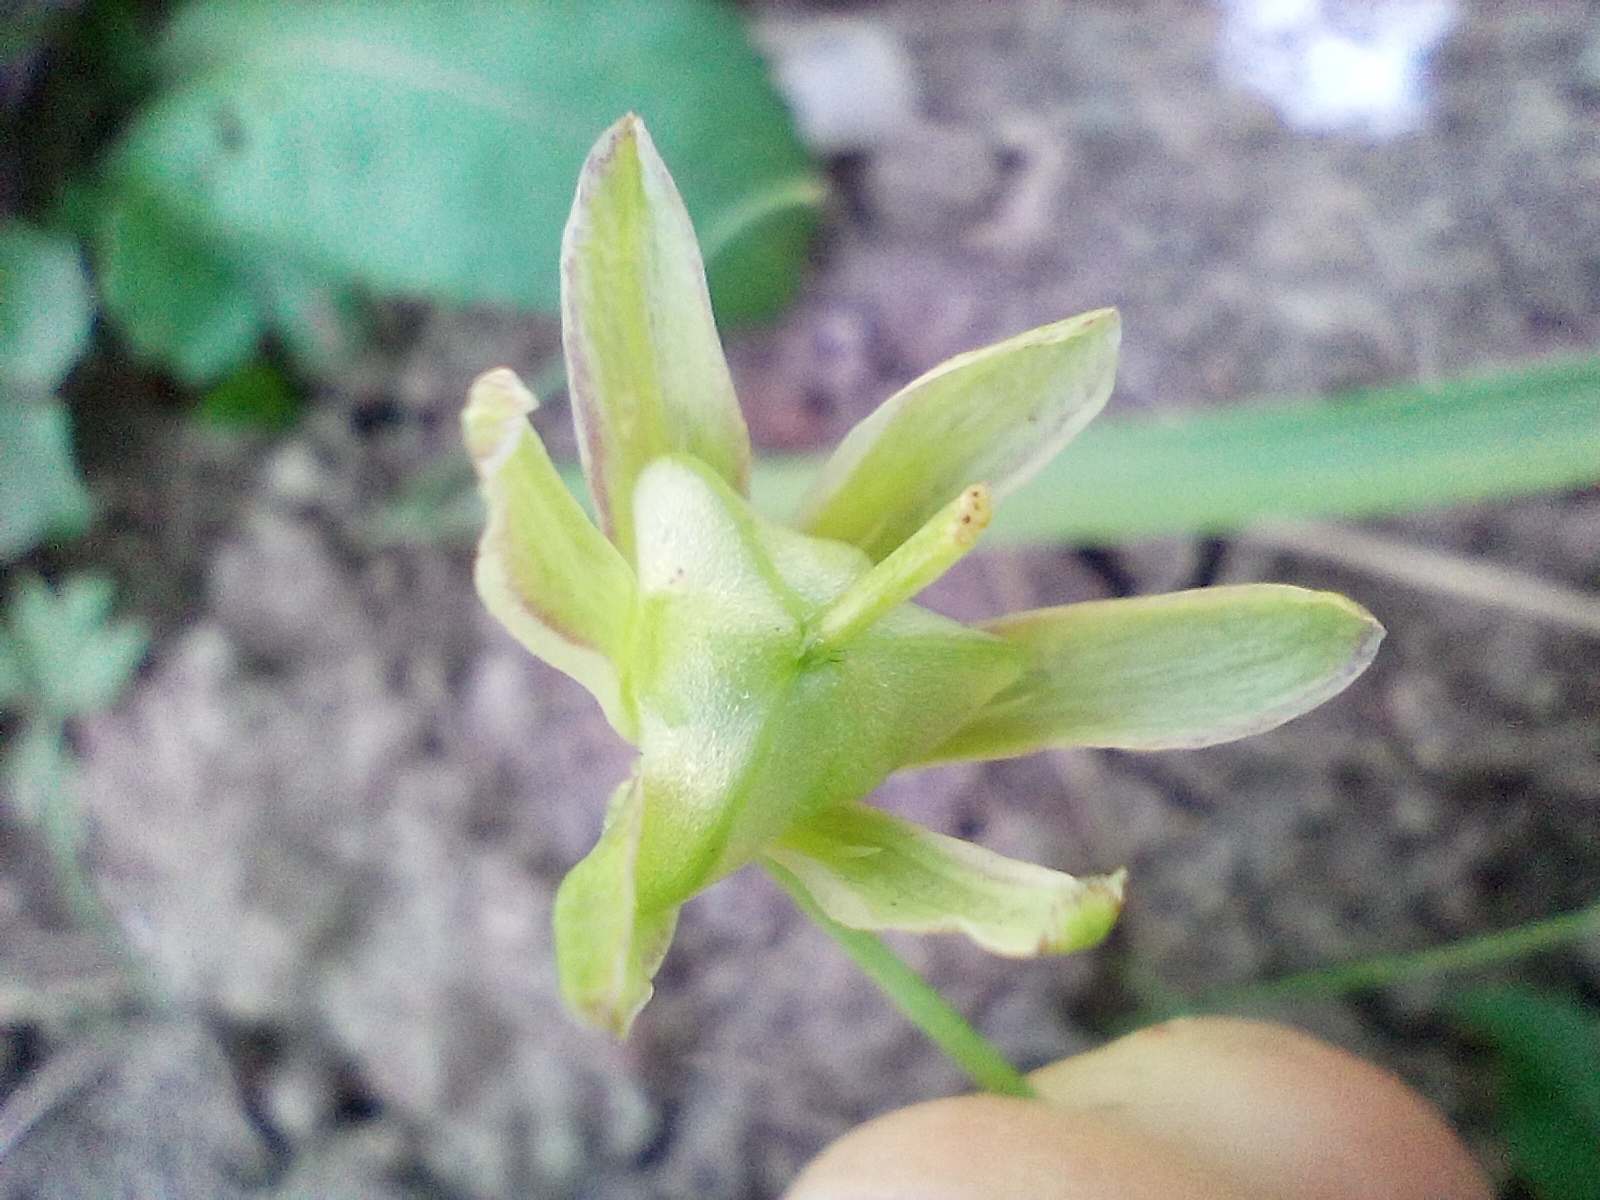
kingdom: Plantae
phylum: Tracheophyta
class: Liliopsida
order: Liliales
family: Liliaceae
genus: Gagea
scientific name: Gagea lutea
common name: Yellow star-of-bethlehem
